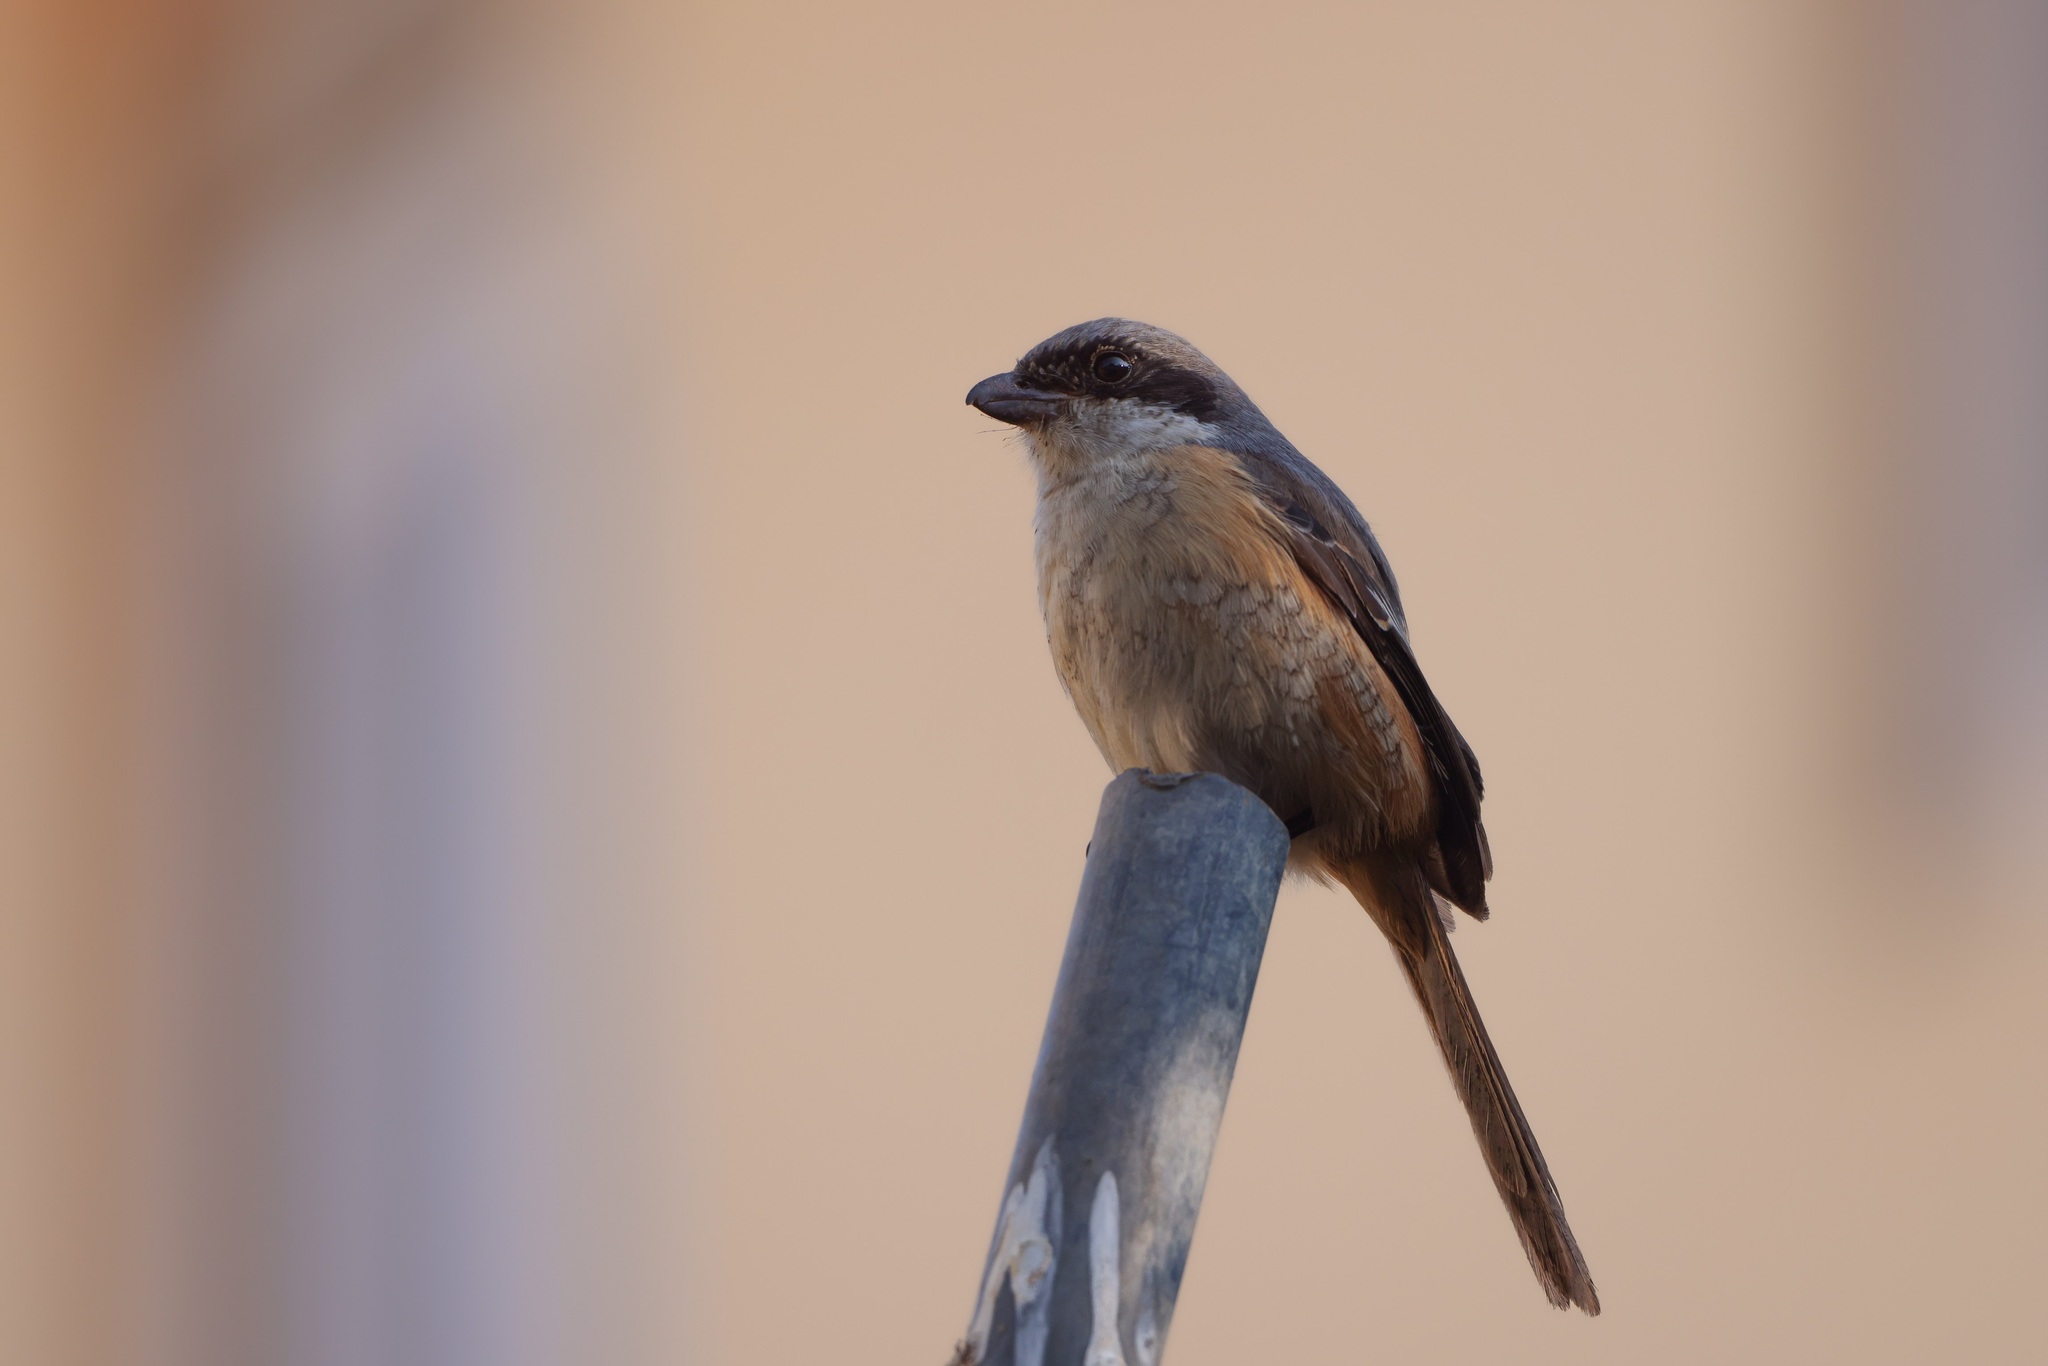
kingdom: Animalia
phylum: Chordata
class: Aves
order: Passeriformes
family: Laniidae
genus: Lanius
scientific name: Lanius tephronotus
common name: Grey-backed shrike
